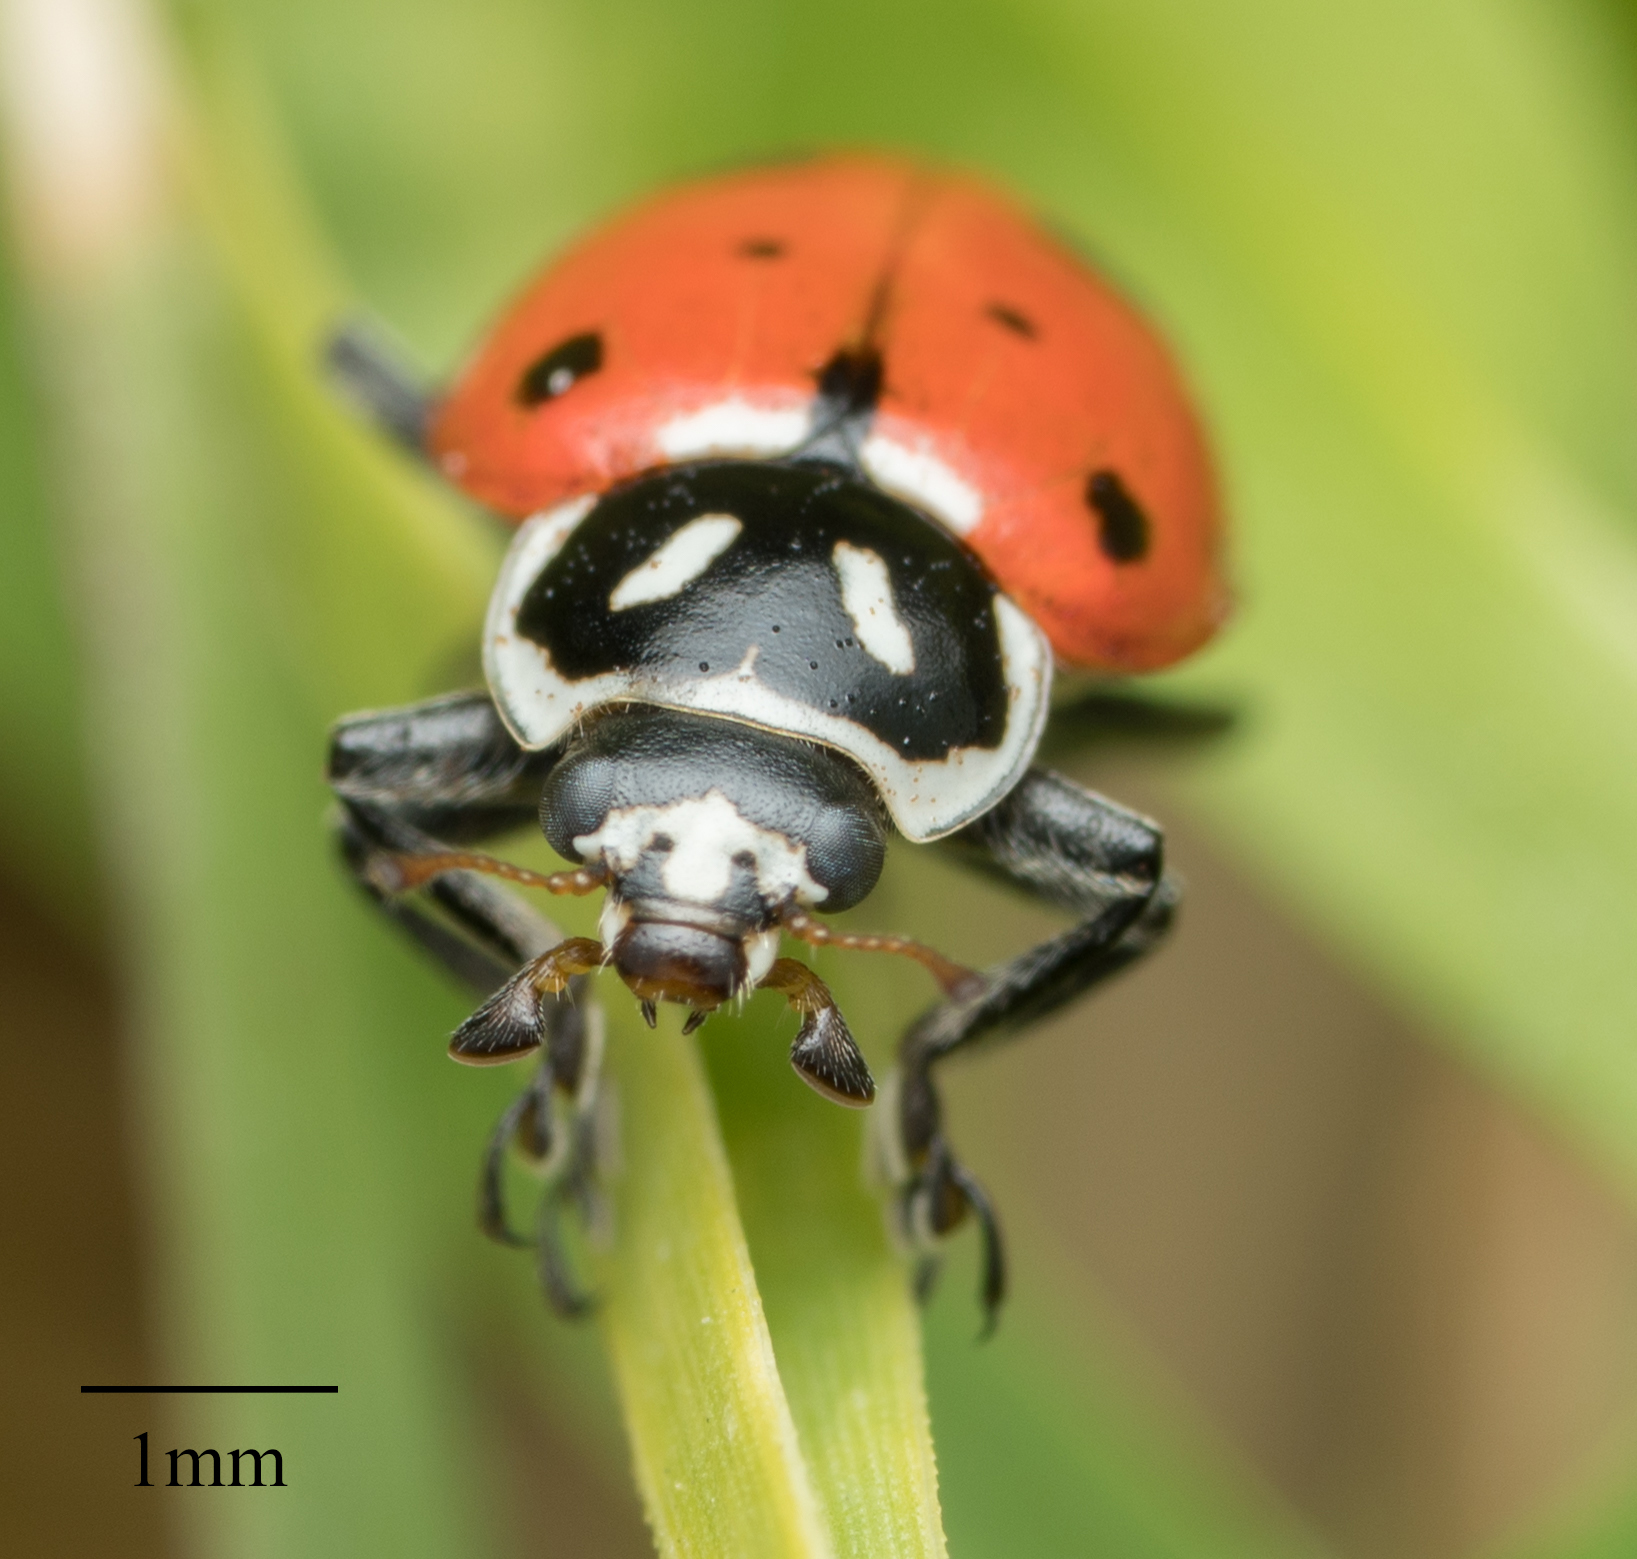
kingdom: Animalia
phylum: Arthropoda
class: Insecta
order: Coleoptera
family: Coccinellidae
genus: Hippodamia
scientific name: Hippodamia convergens
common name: Convergent lady beetle
